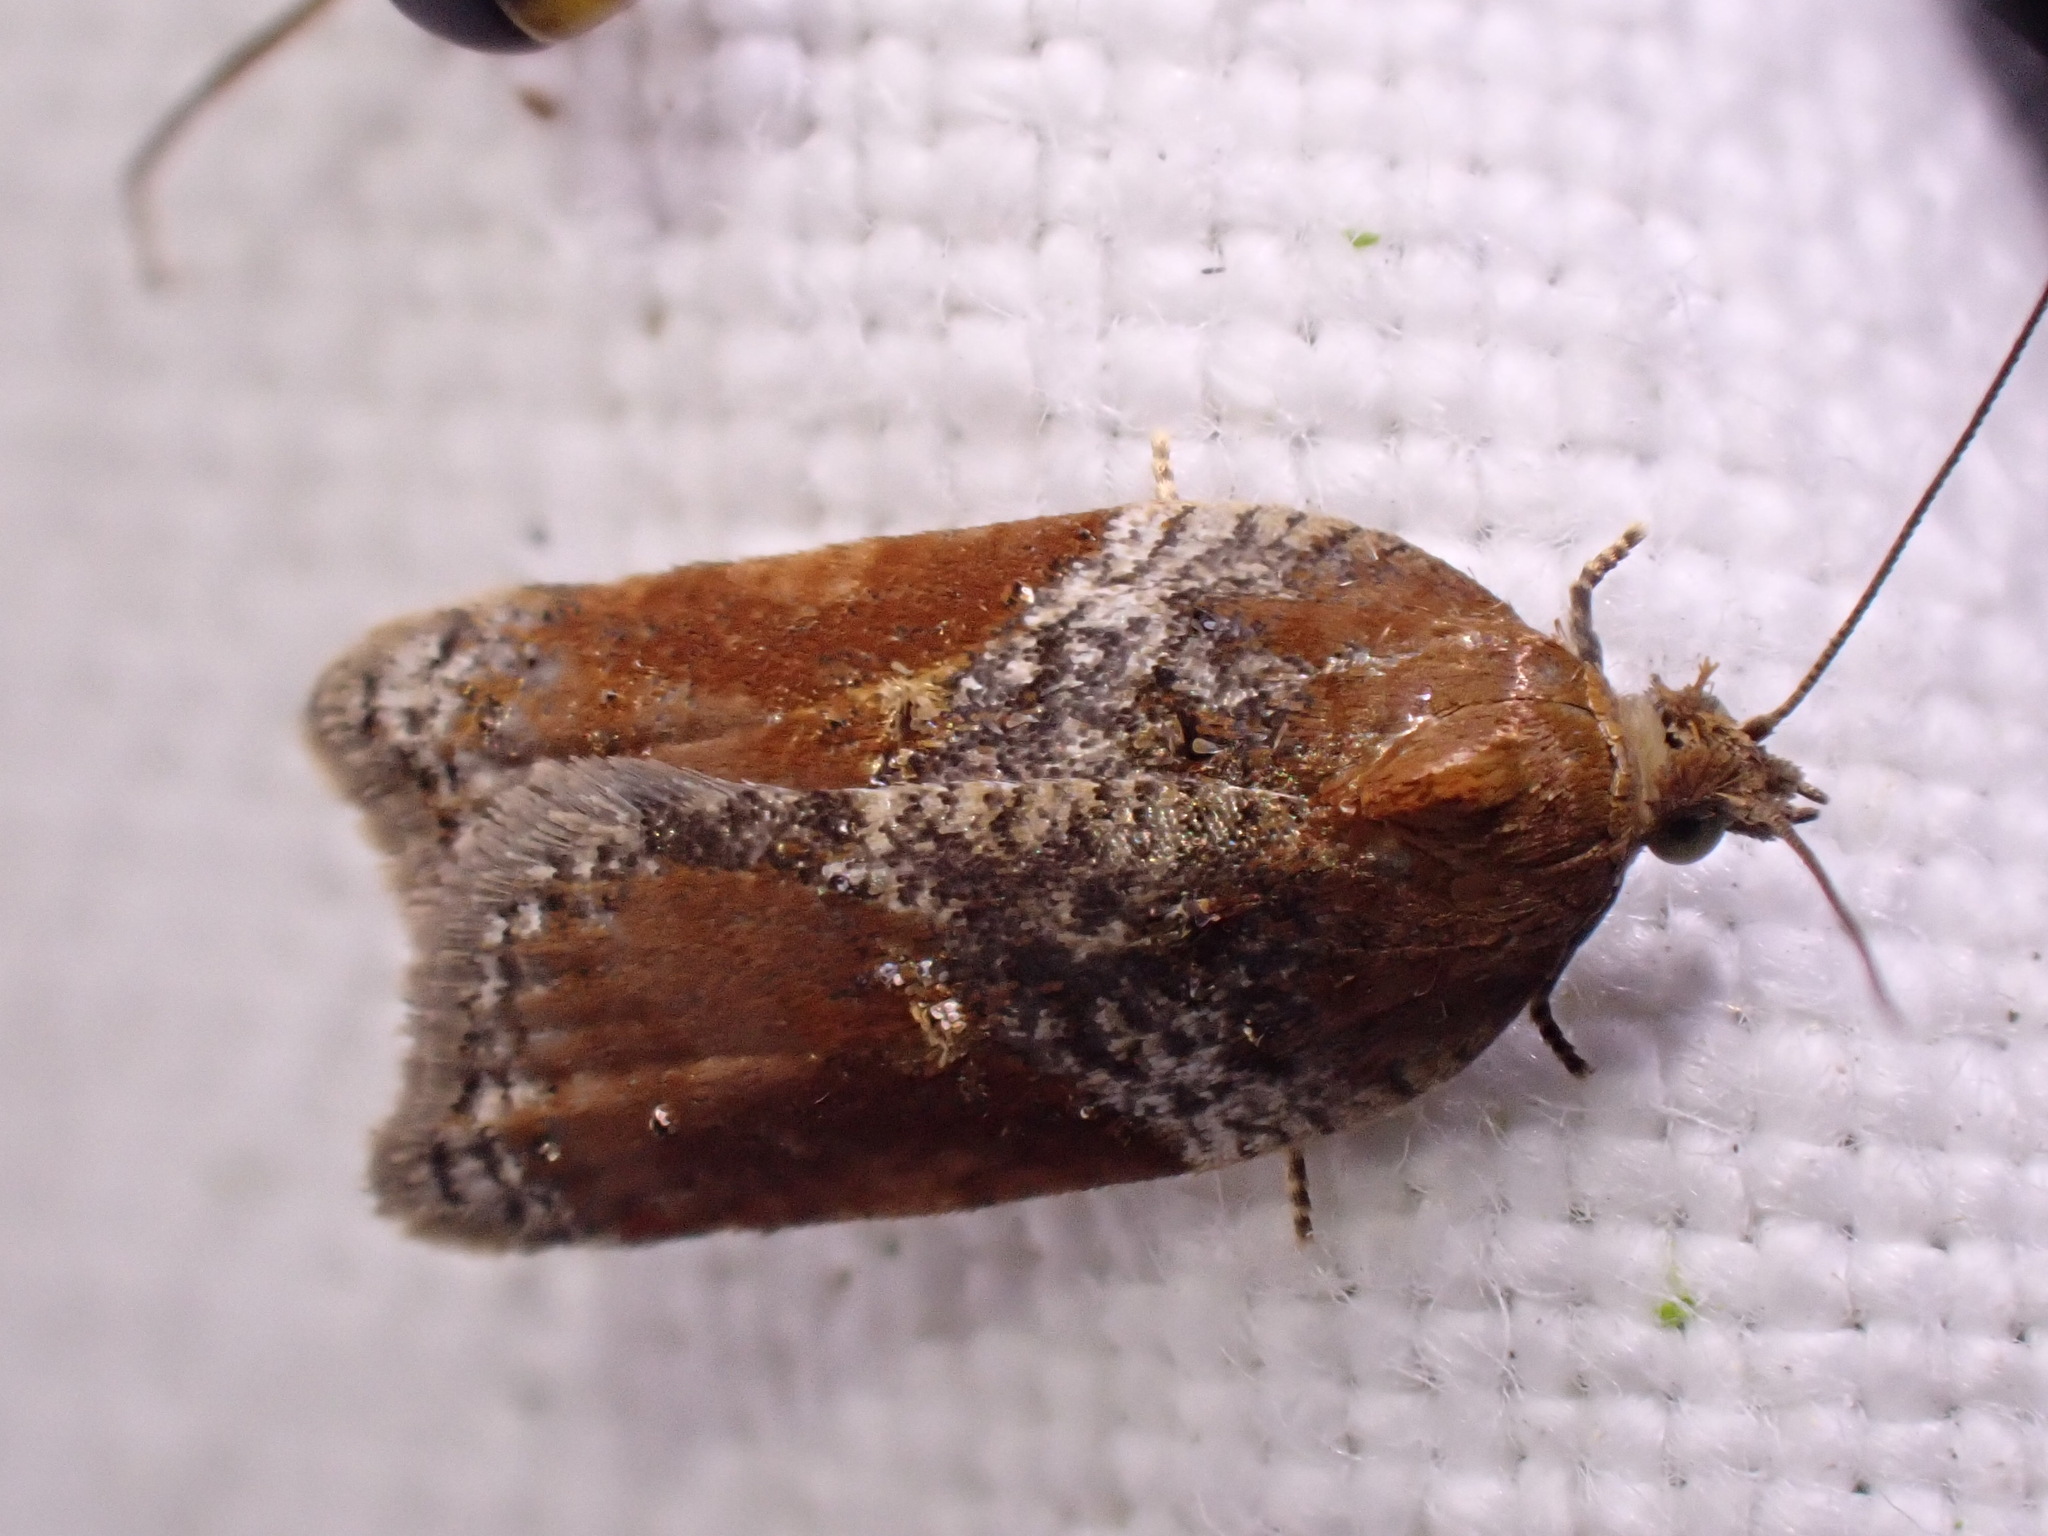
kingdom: Animalia
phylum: Arthropoda
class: Insecta
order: Lepidoptera
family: Tortricidae
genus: Acleris
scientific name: Acleris laterana
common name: Dark-triangle button
